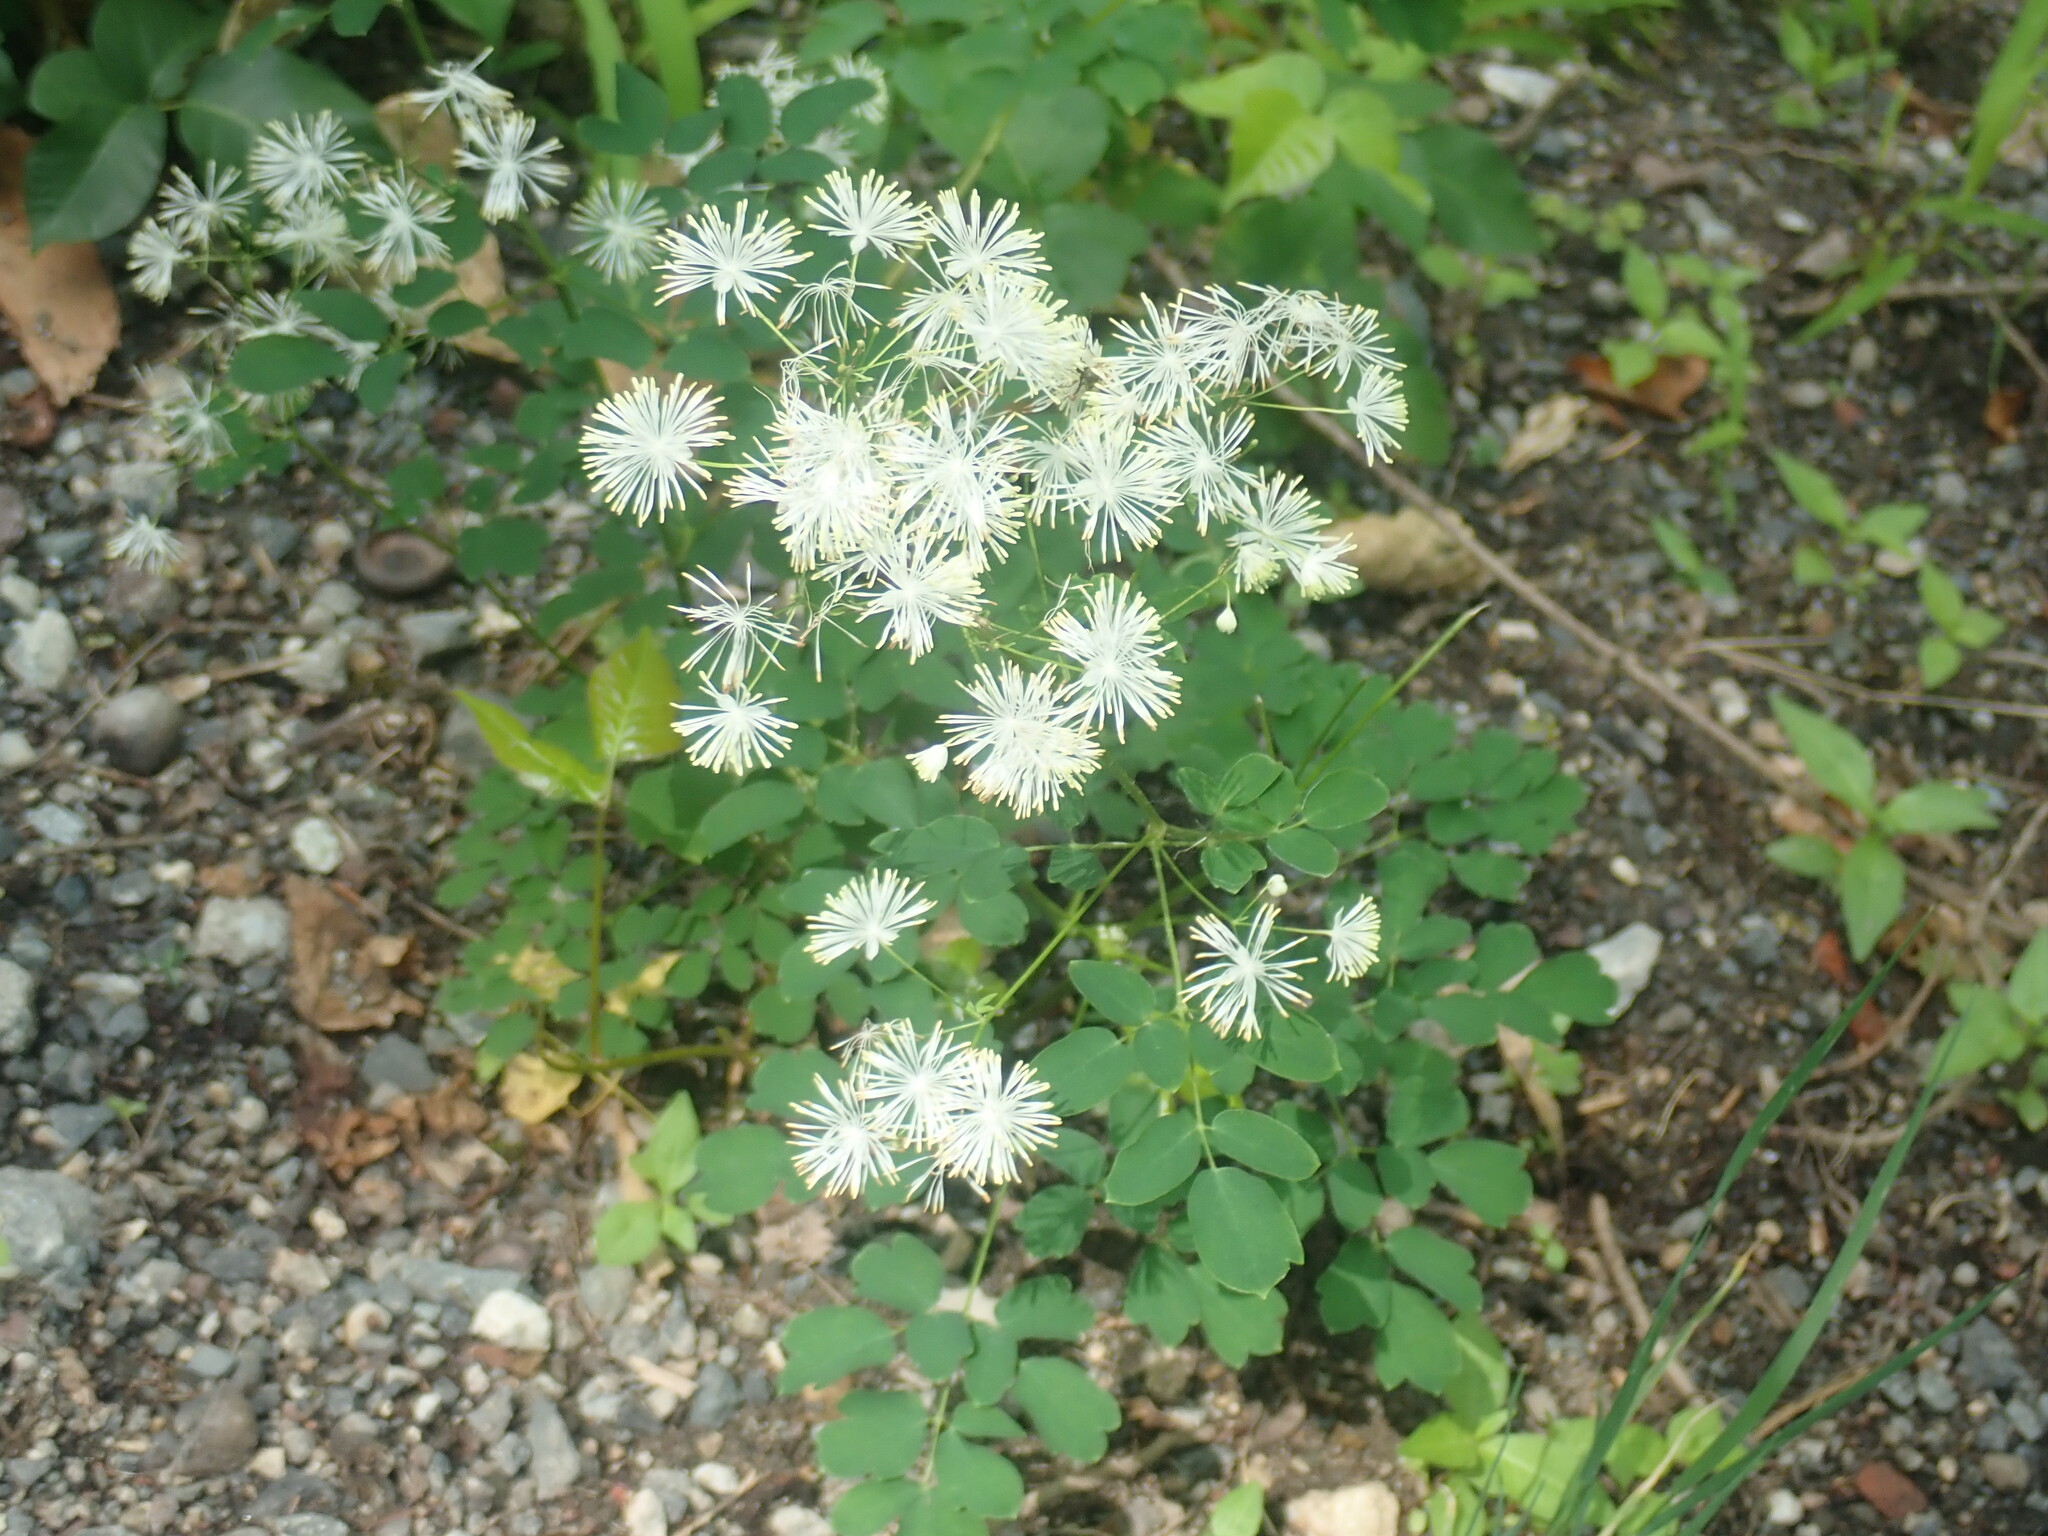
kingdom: Plantae
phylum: Tracheophyta
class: Magnoliopsida
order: Ranunculales
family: Ranunculaceae
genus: Thalictrum
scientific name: Thalictrum pubescens
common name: King-of-the-meadow
